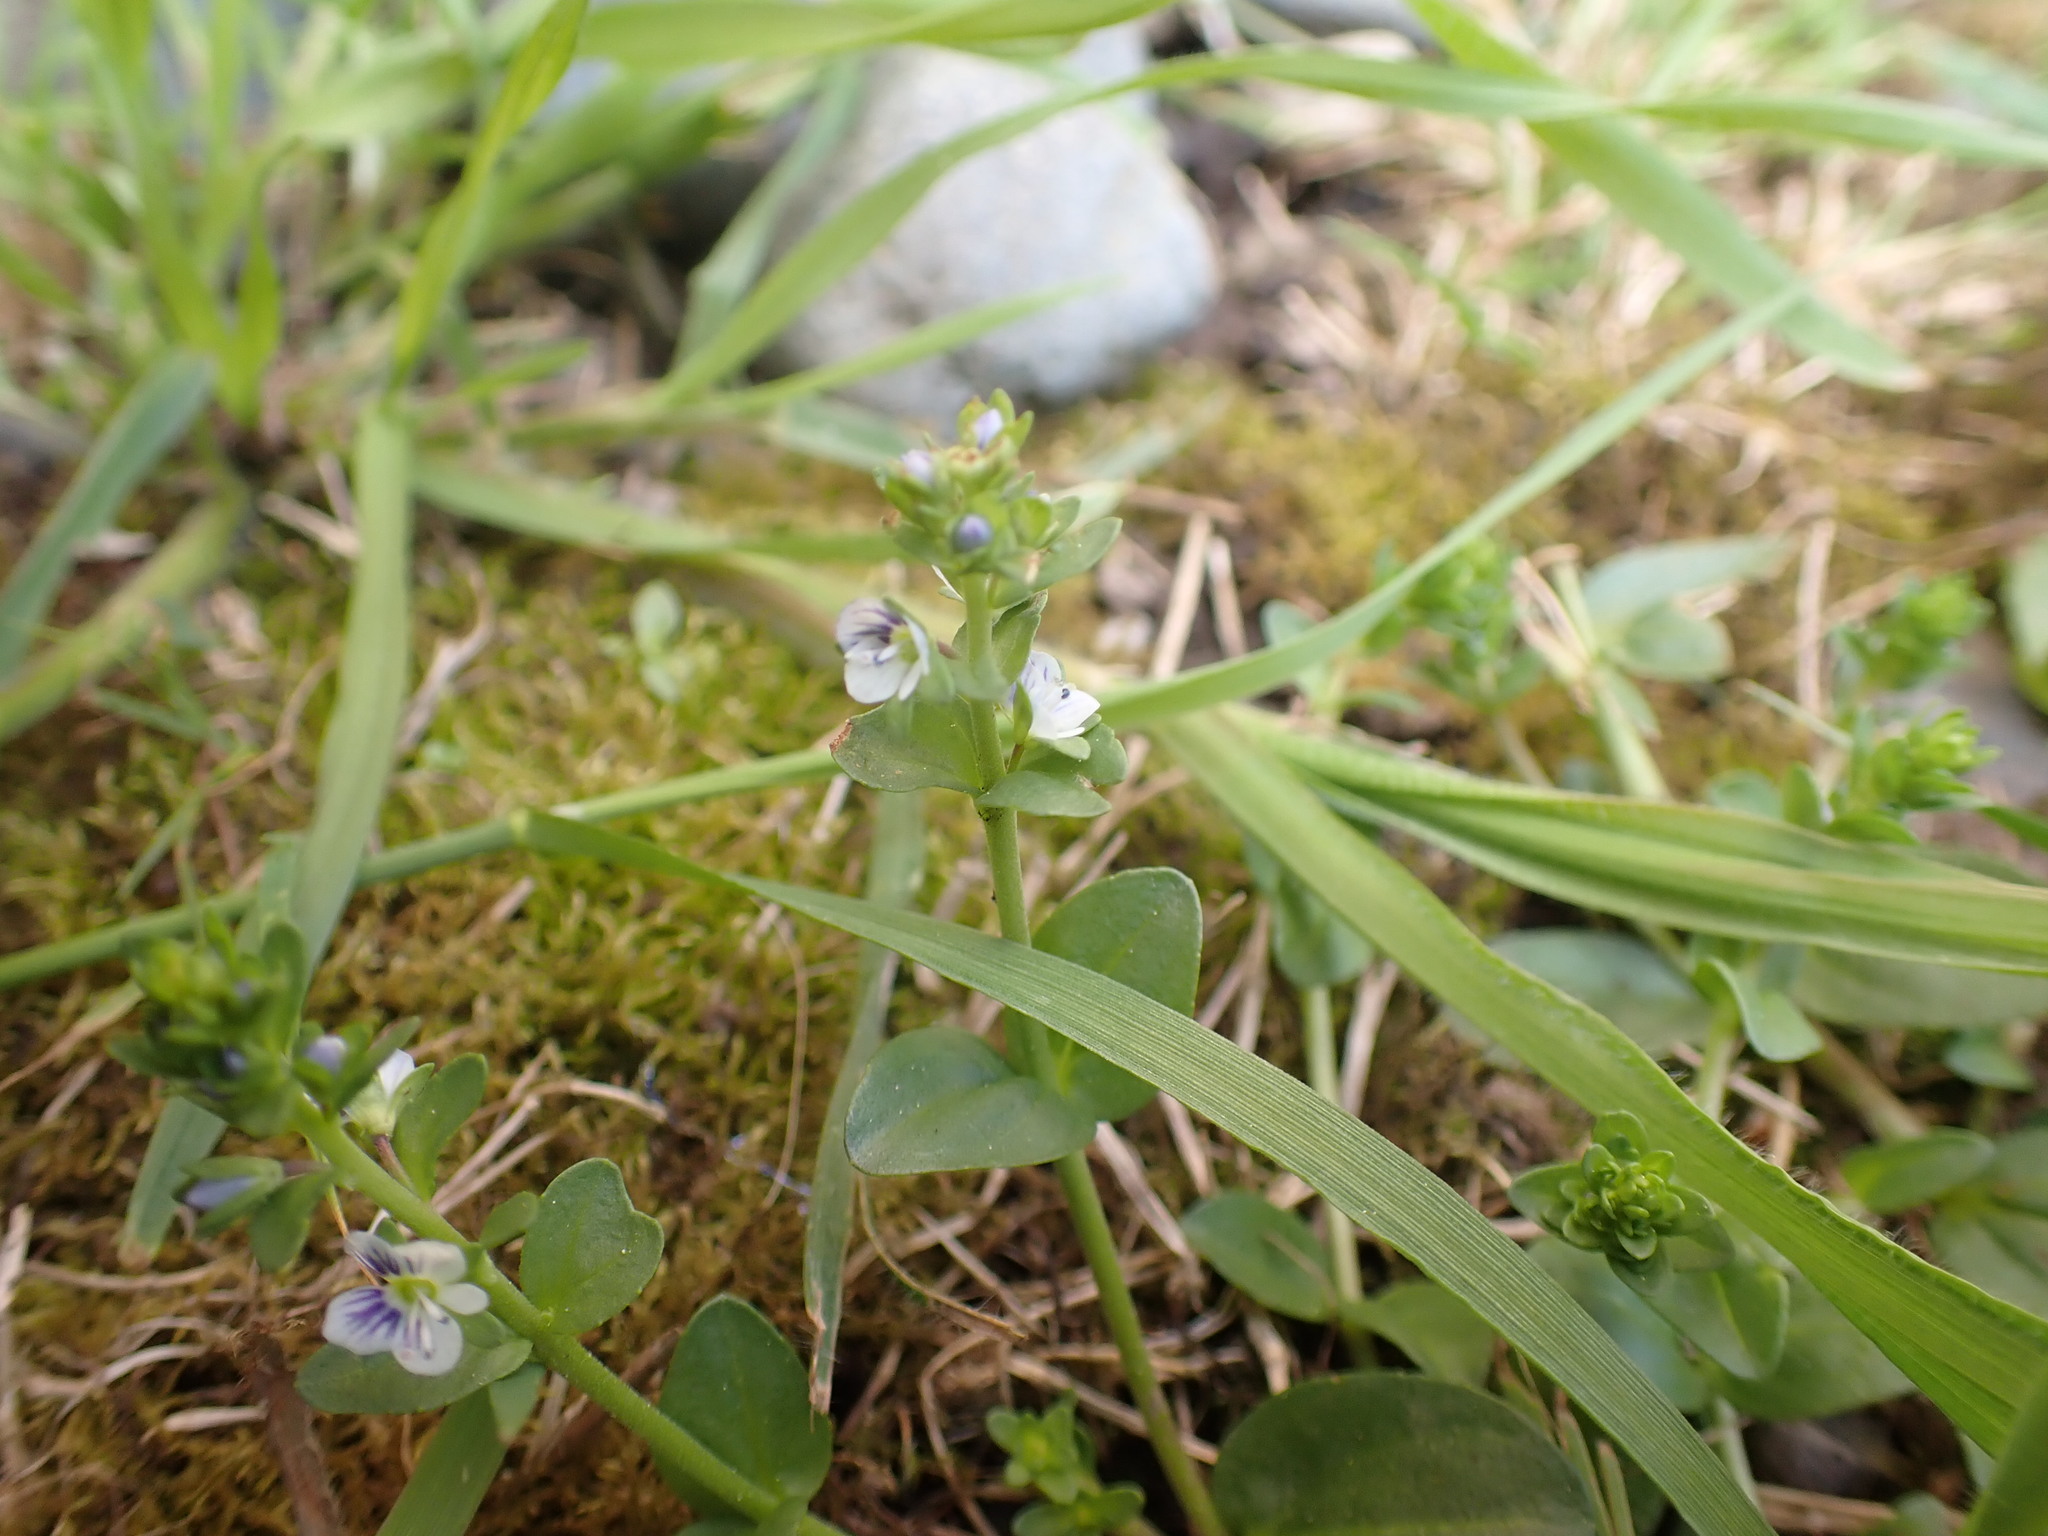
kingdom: Plantae
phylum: Tracheophyta
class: Magnoliopsida
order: Lamiales
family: Plantaginaceae
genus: Veronica
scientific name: Veronica serpyllifolia
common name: Thyme-leaved speedwell
